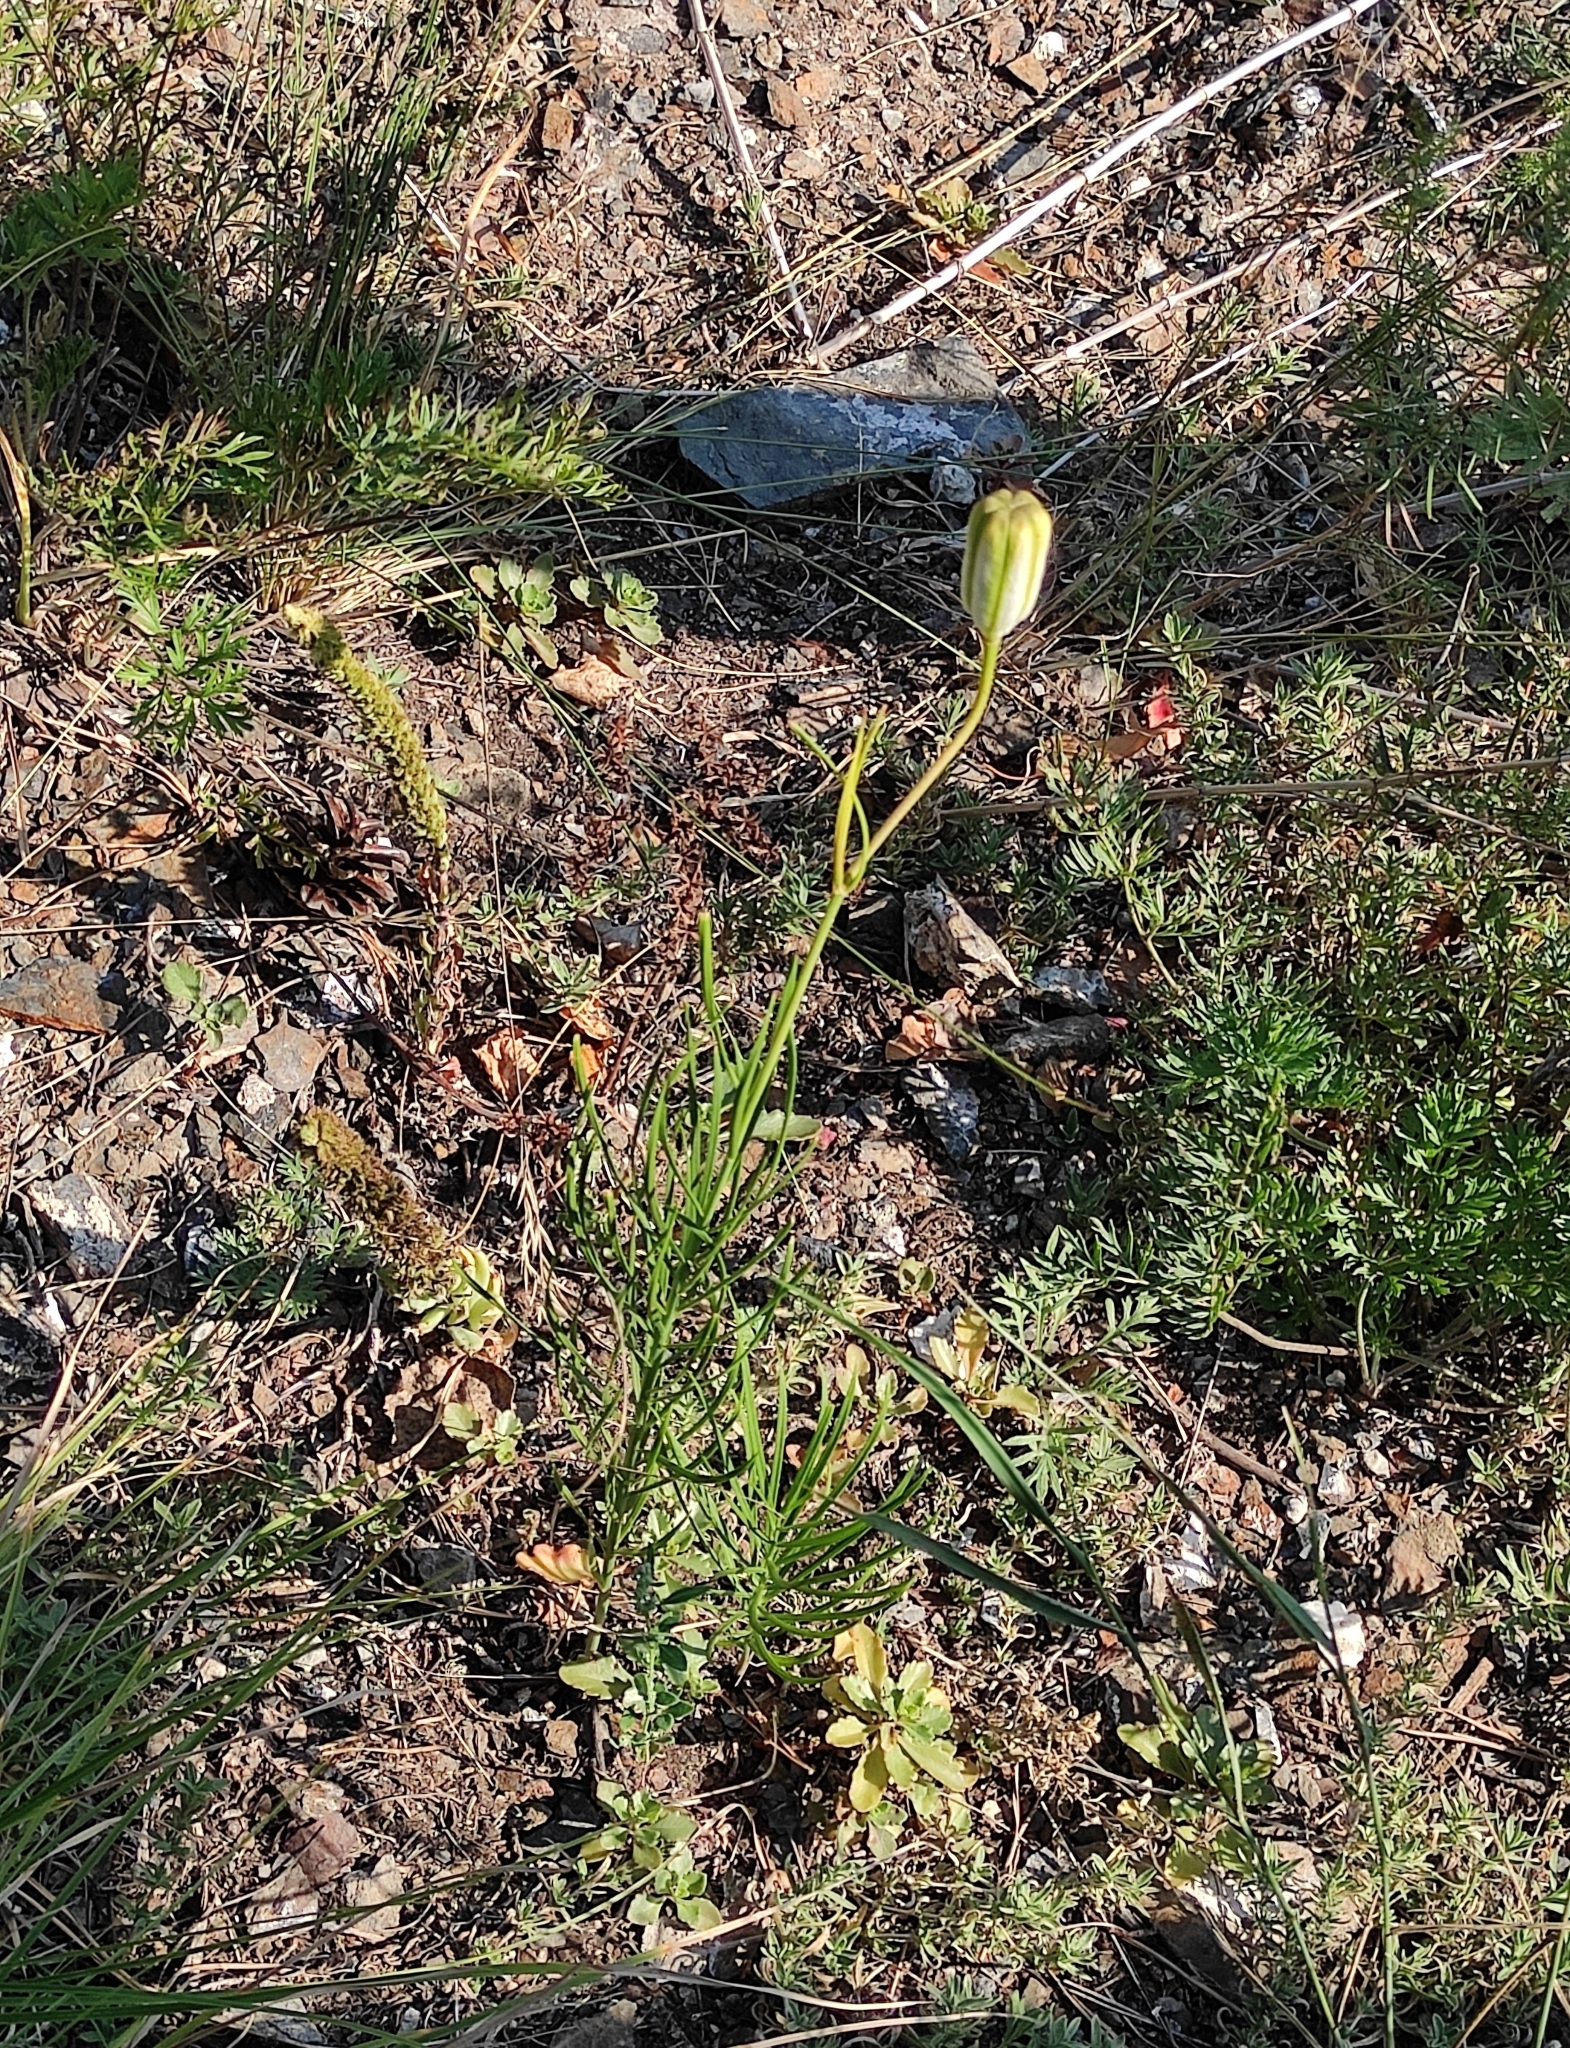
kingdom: Plantae
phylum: Tracheophyta
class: Liliopsida
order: Liliales
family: Liliaceae
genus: Lilium
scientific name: Lilium pumilum
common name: Coral lily
